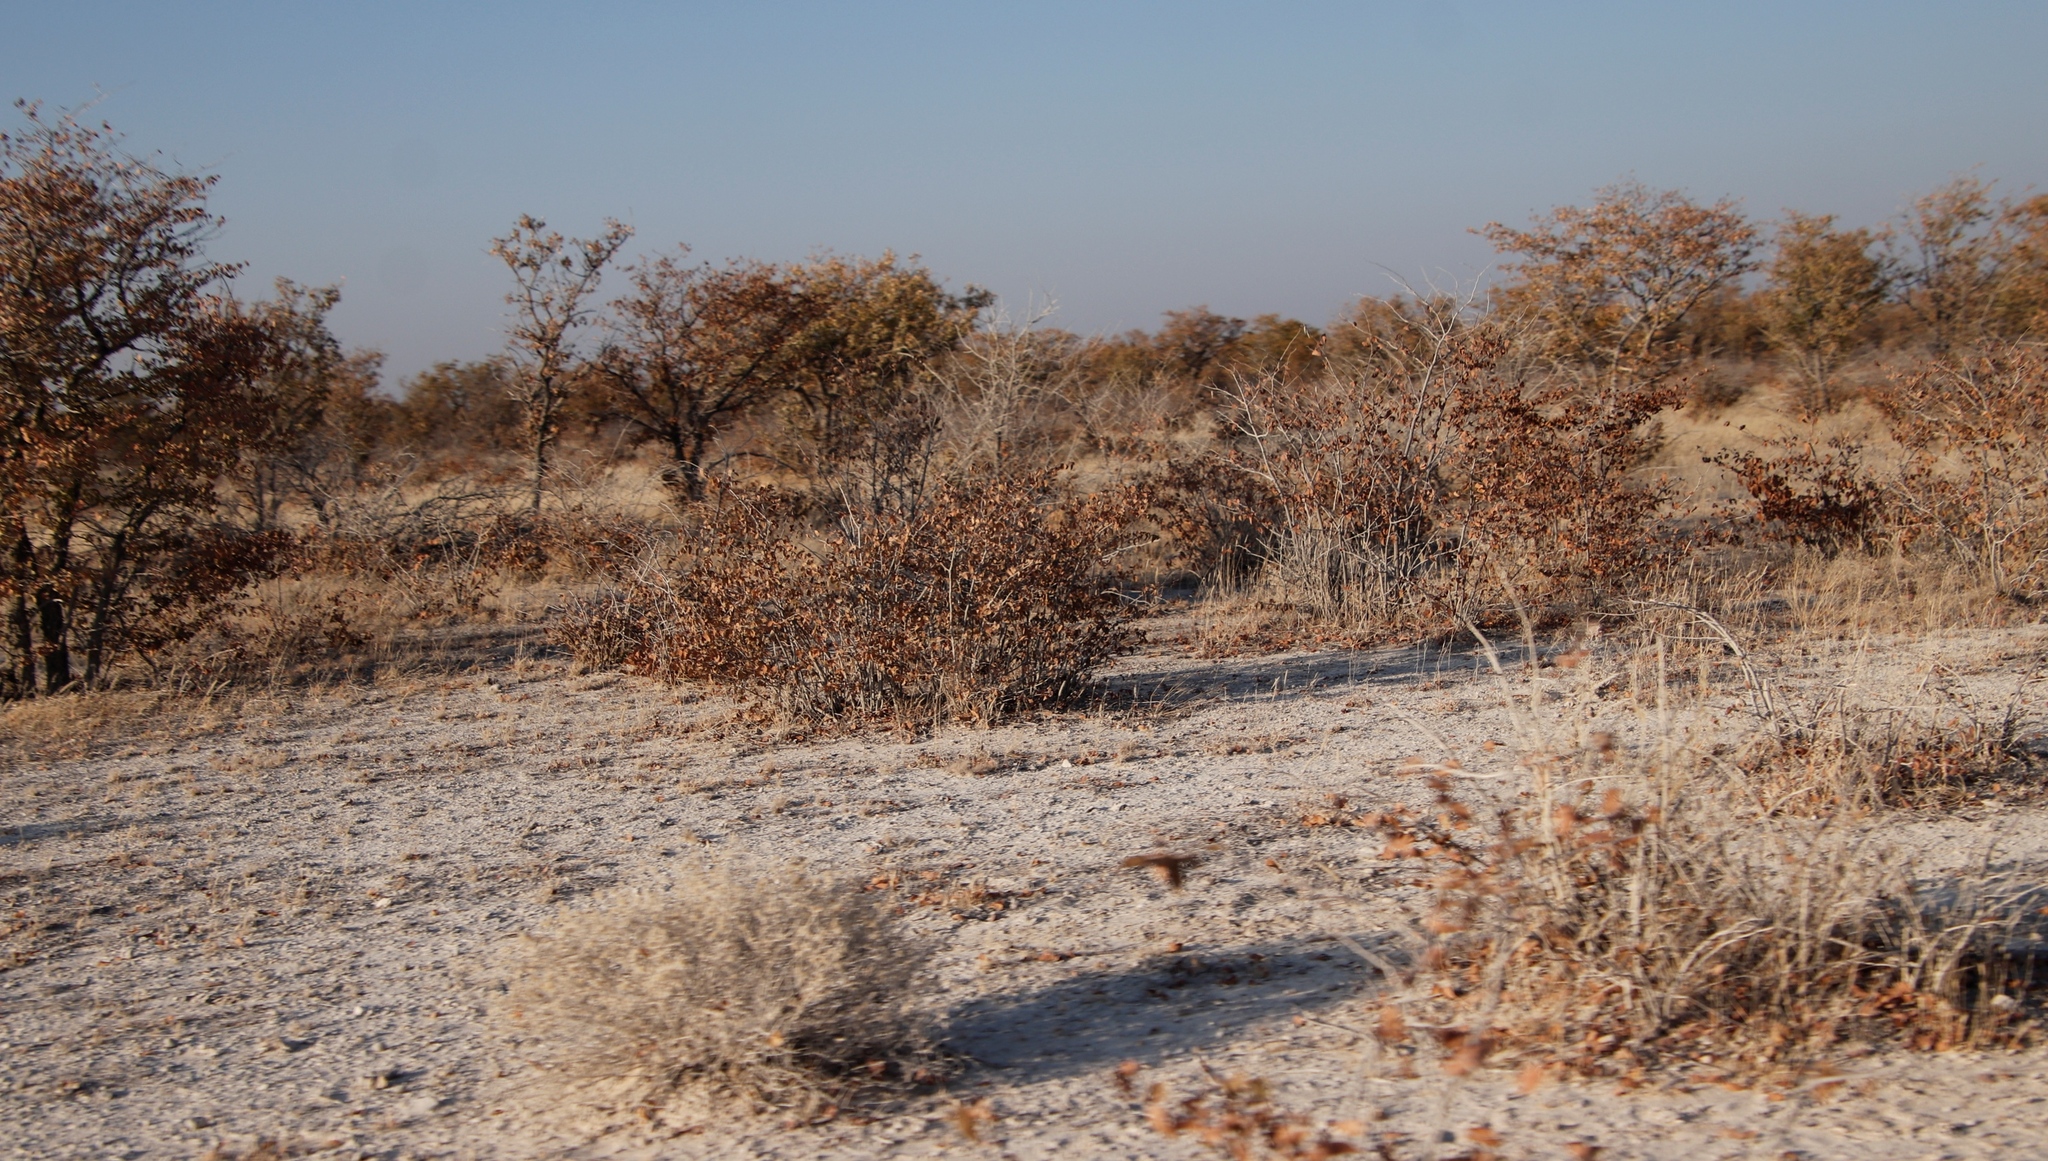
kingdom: Plantae
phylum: Tracheophyta
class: Magnoliopsida
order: Fabales
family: Fabaceae
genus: Colophospermum
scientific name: Colophospermum mopane
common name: Mopane
